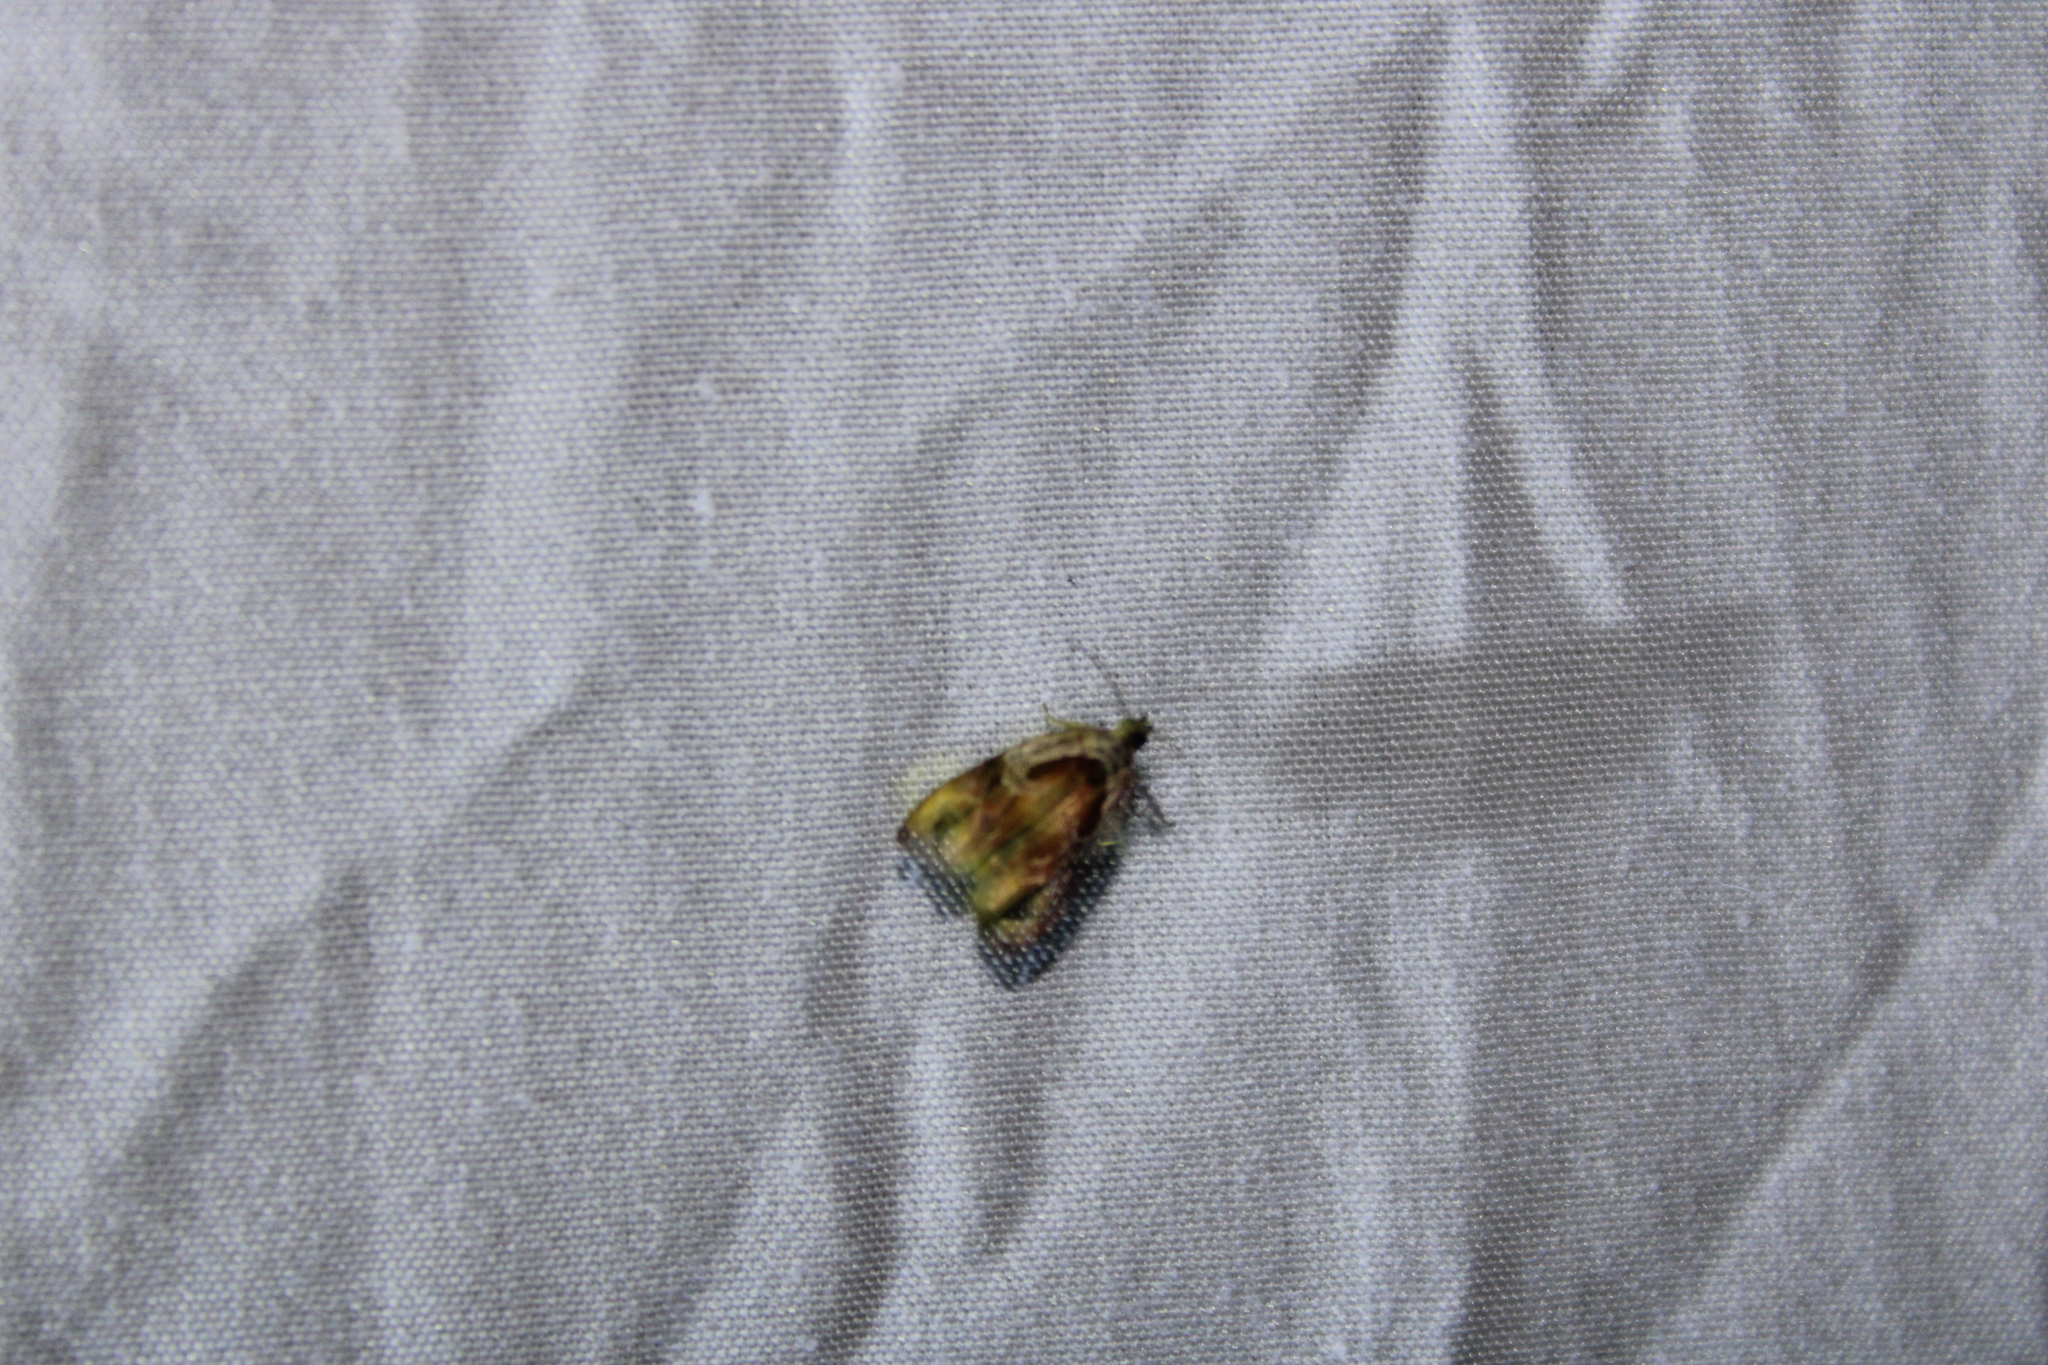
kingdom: Animalia
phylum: Arthropoda
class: Insecta
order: Lepidoptera
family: Tortricidae
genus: Zomaria
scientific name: Zomaria interruptolineana
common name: Broken-lined zomaria moth
